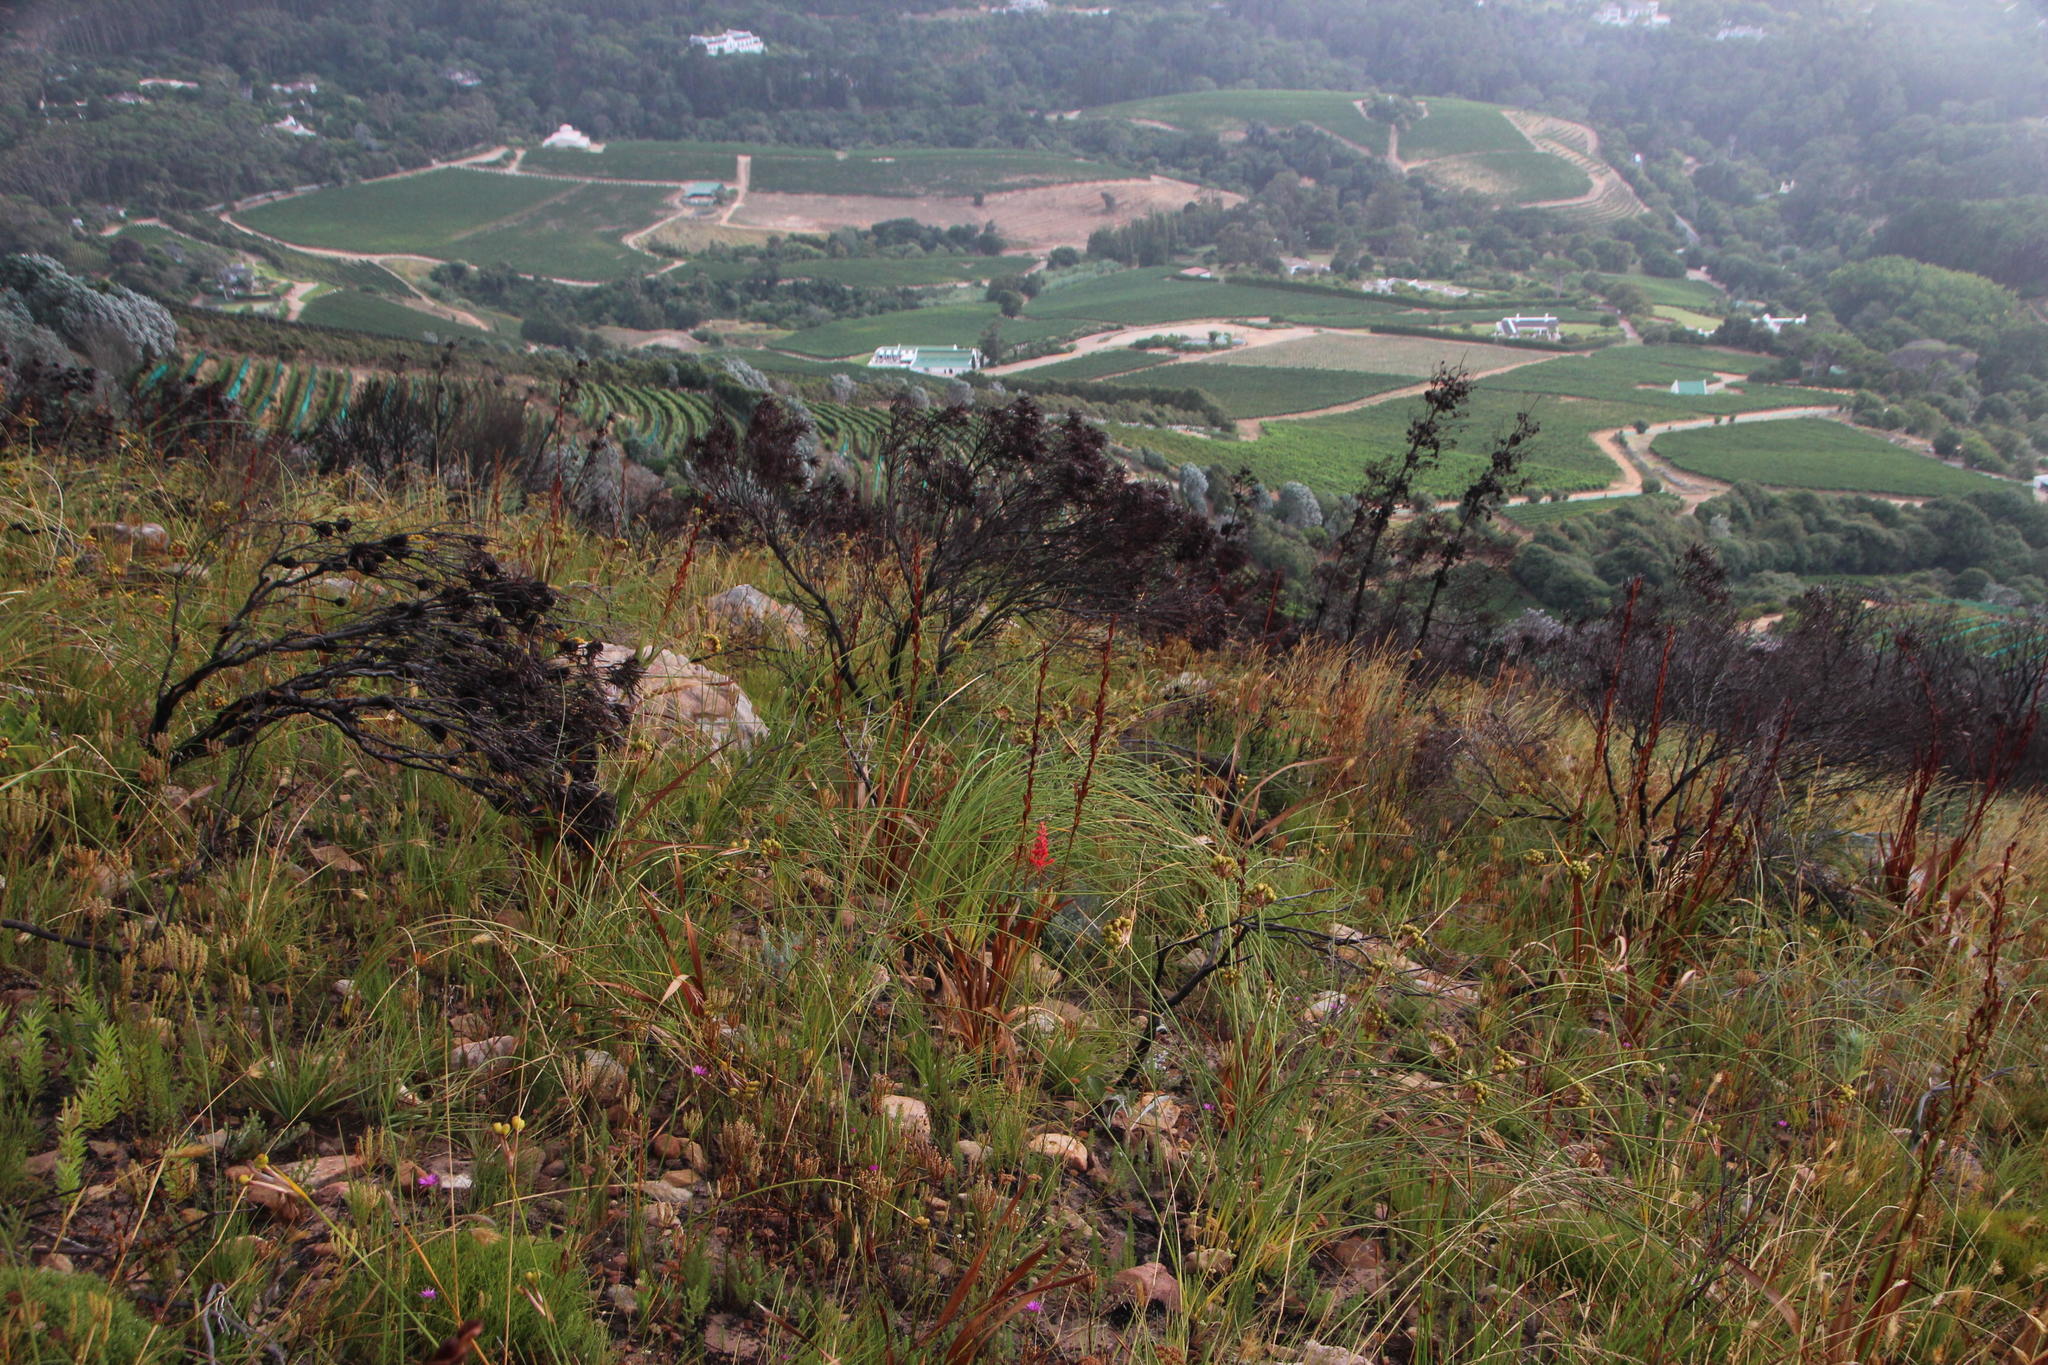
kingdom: Plantae
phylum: Tracheophyta
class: Liliopsida
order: Asparagales
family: Iridaceae
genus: Tritoniopsis
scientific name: Tritoniopsis triticea
